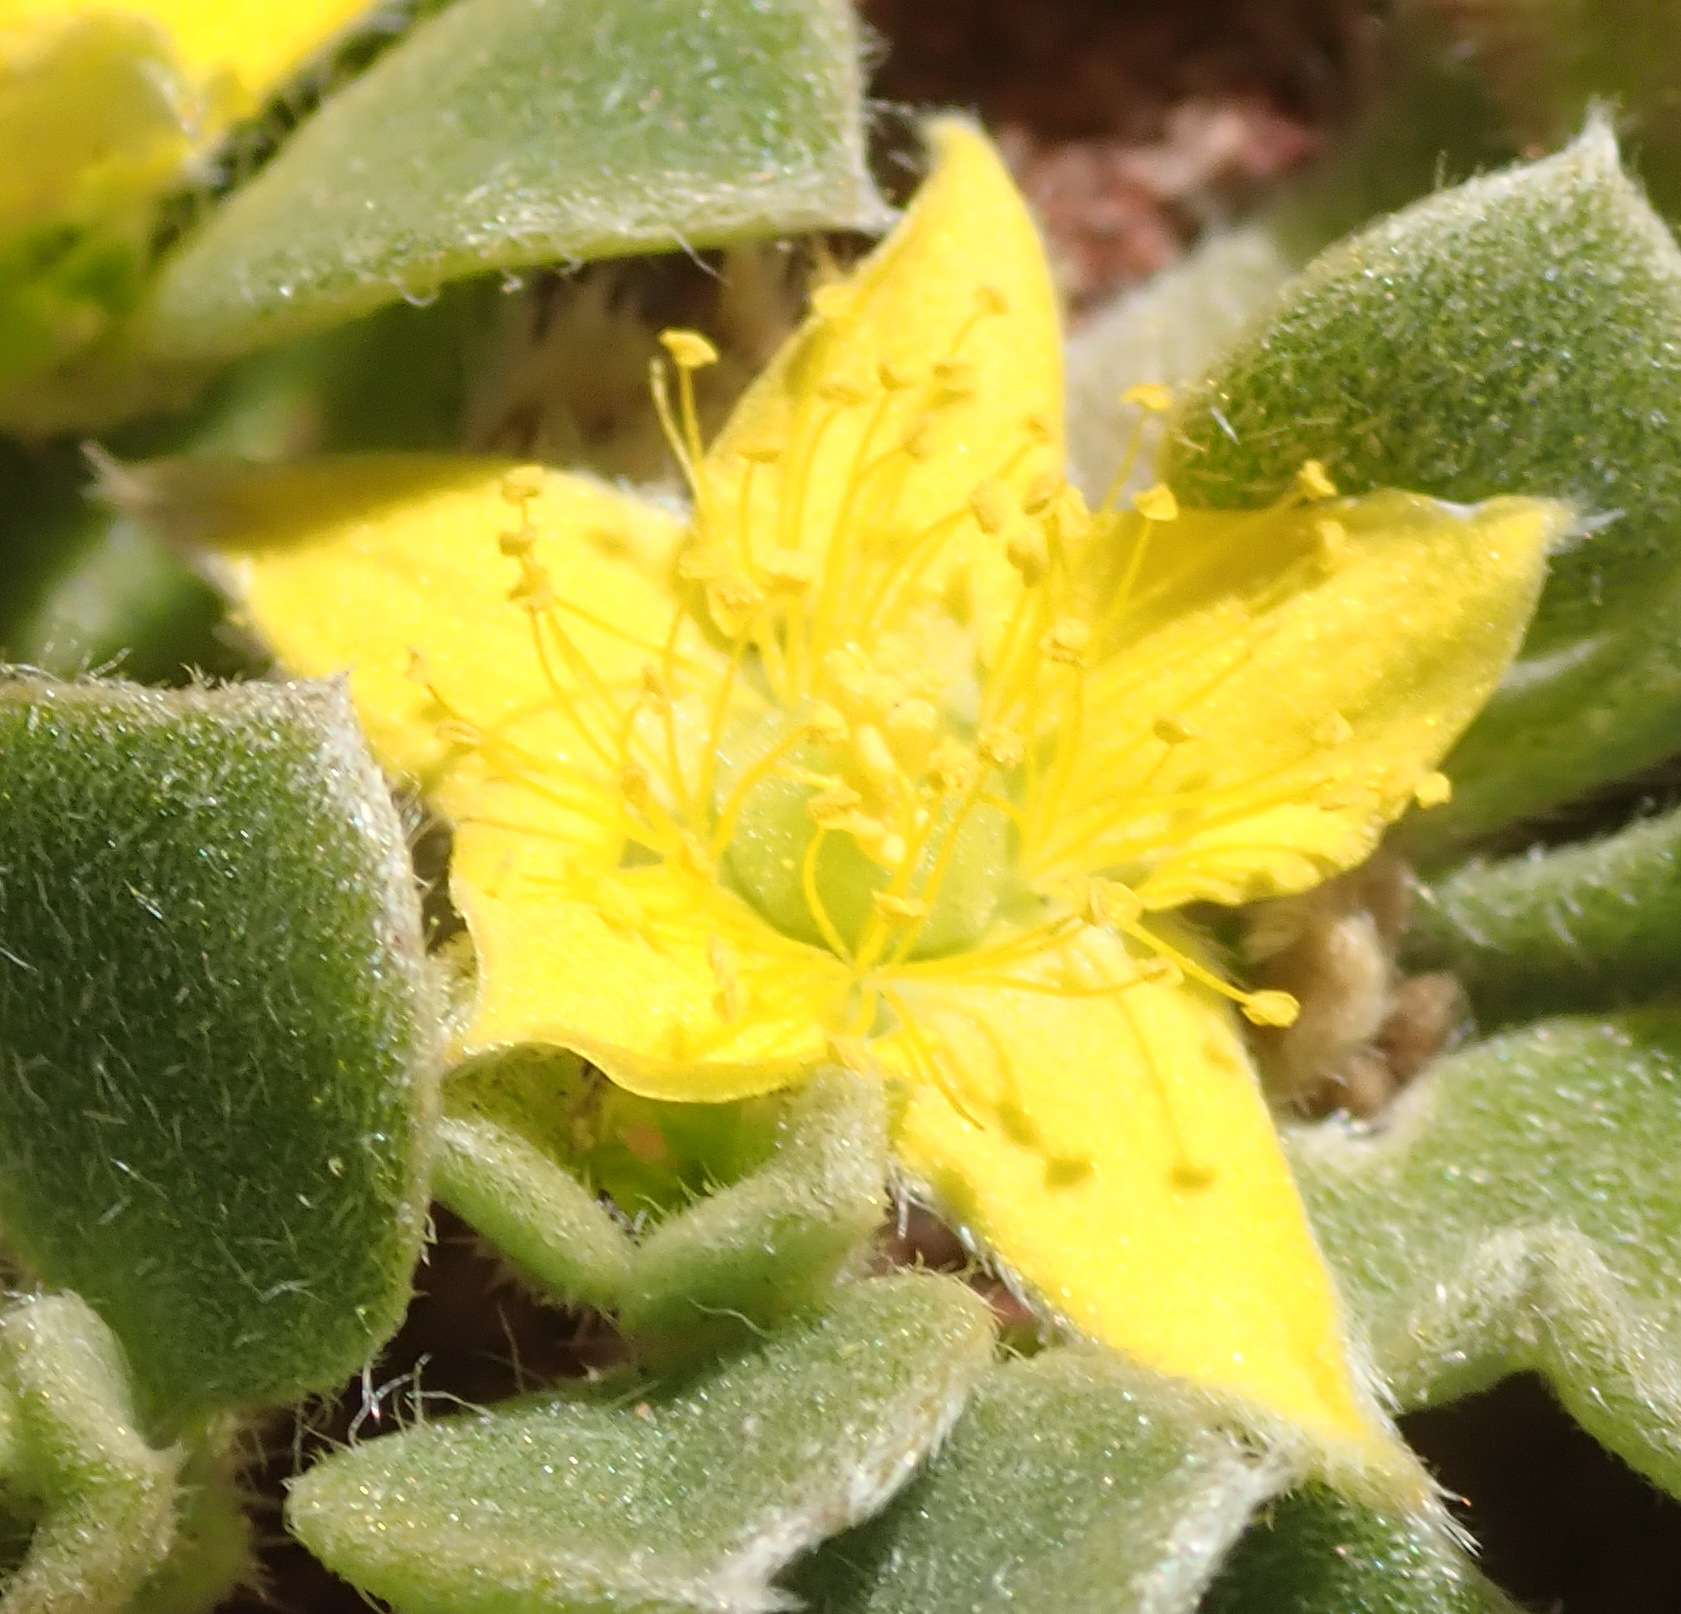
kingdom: Plantae
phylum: Tracheophyta
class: Magnoliopsida
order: Caryophyllales
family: Aizoaceae
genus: Aizoon
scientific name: Aizoon glinoides
